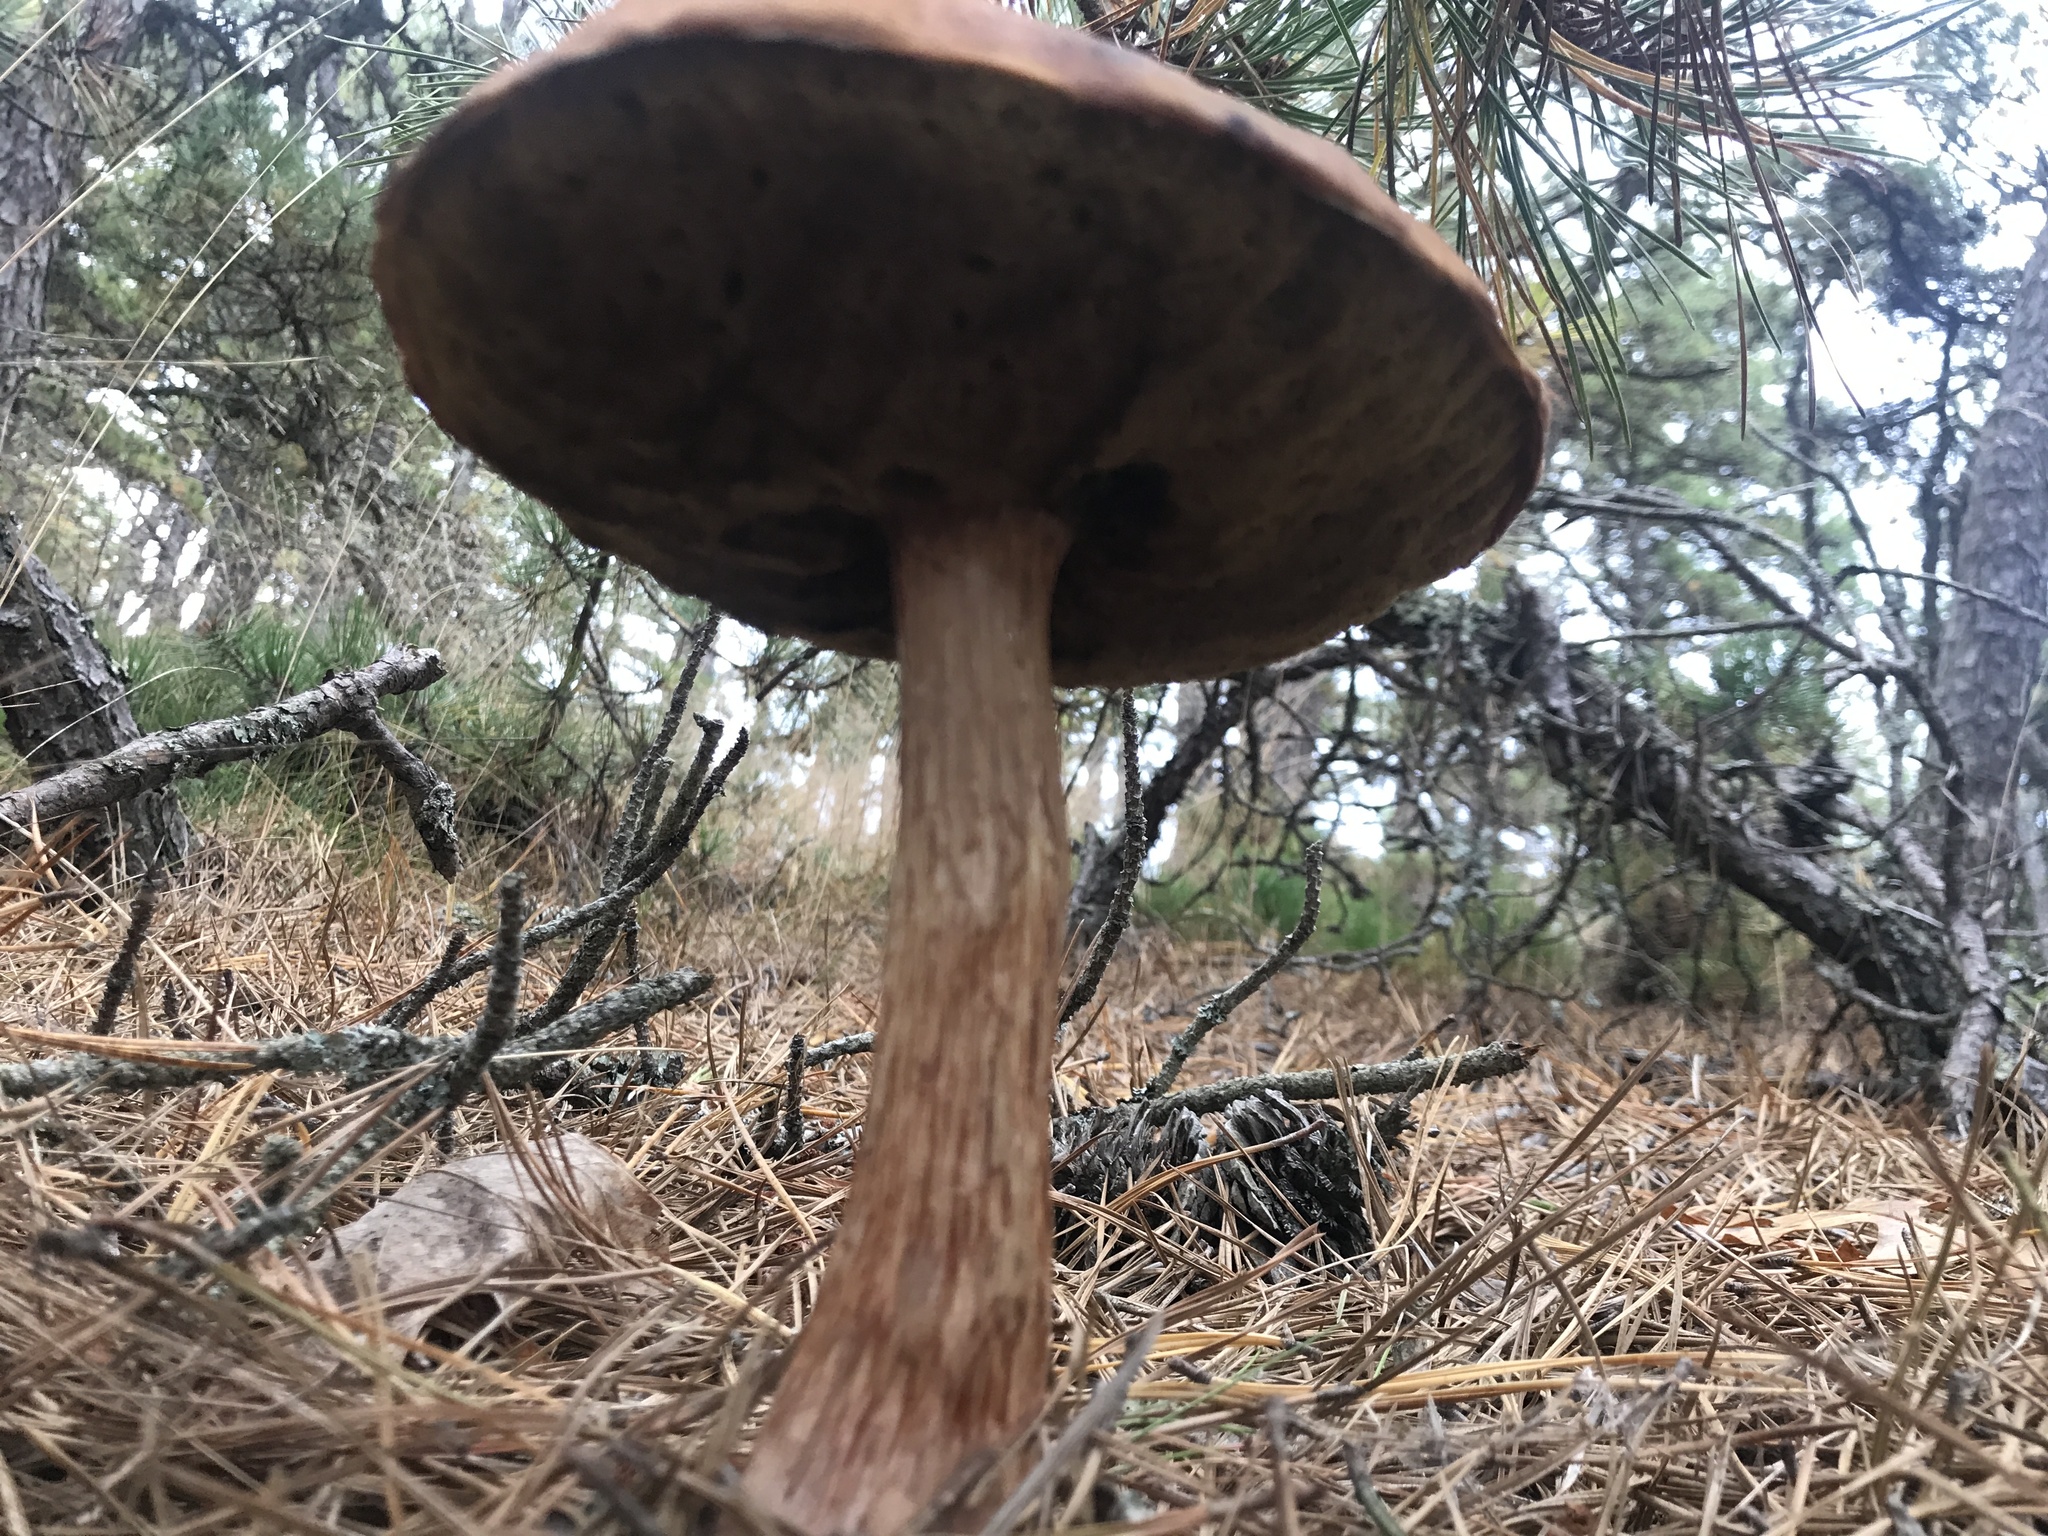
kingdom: Fungi
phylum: Basidiomycota
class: Agaricomycetes
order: Boletales
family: Boletaceae
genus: Aureoboletus
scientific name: Aureoboletus projectellus
